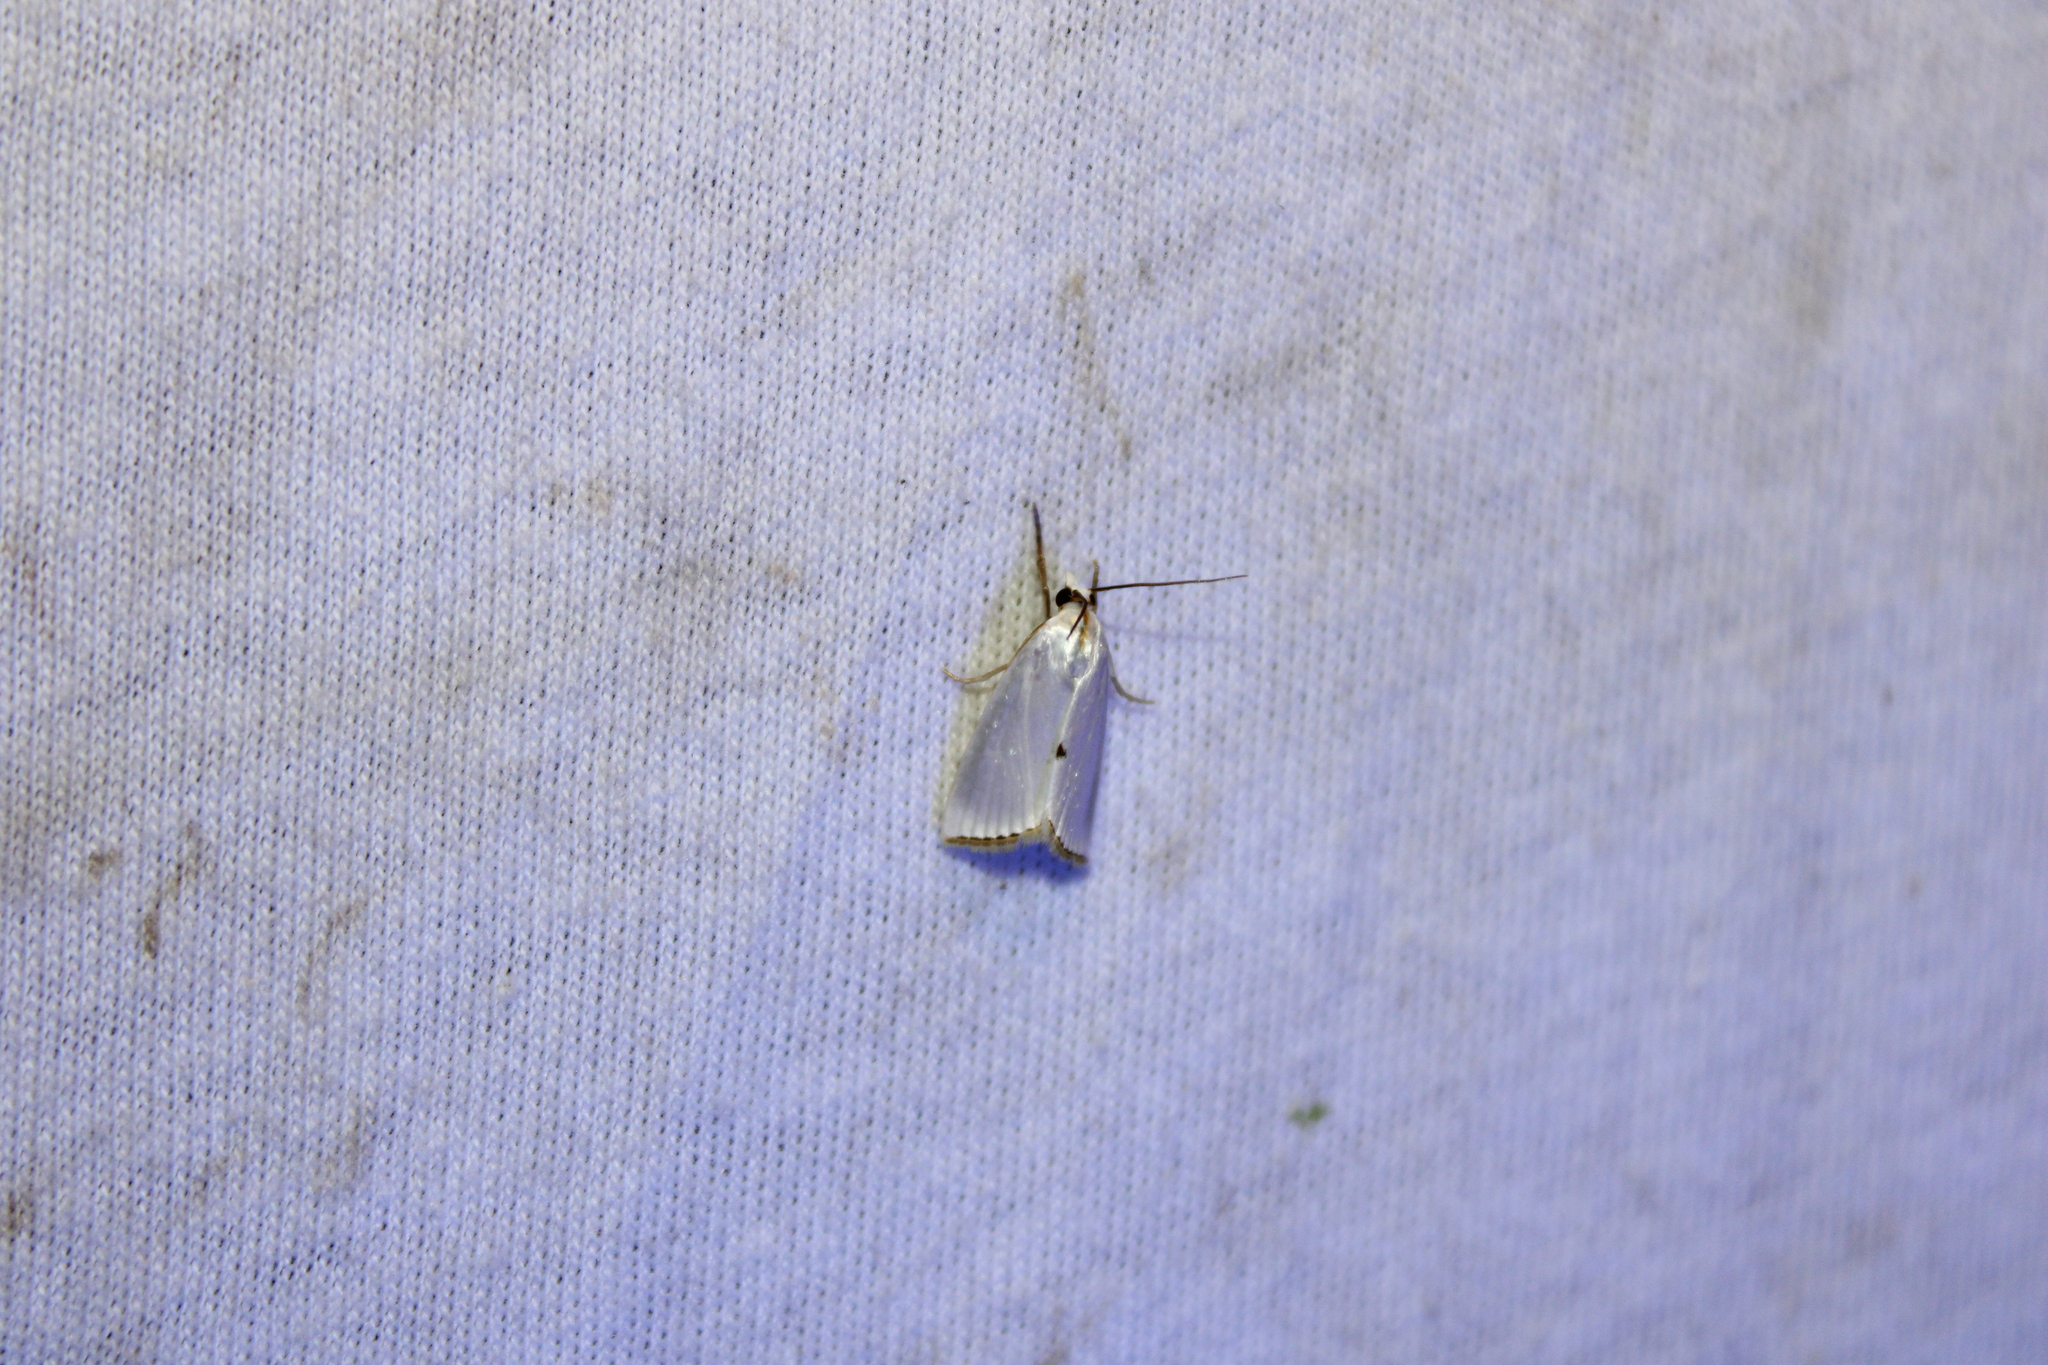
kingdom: Animalia
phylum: Arthropoda
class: Insecta
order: Lepidoptera
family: Crambidae
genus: Argyria
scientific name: Argyria nivalis
